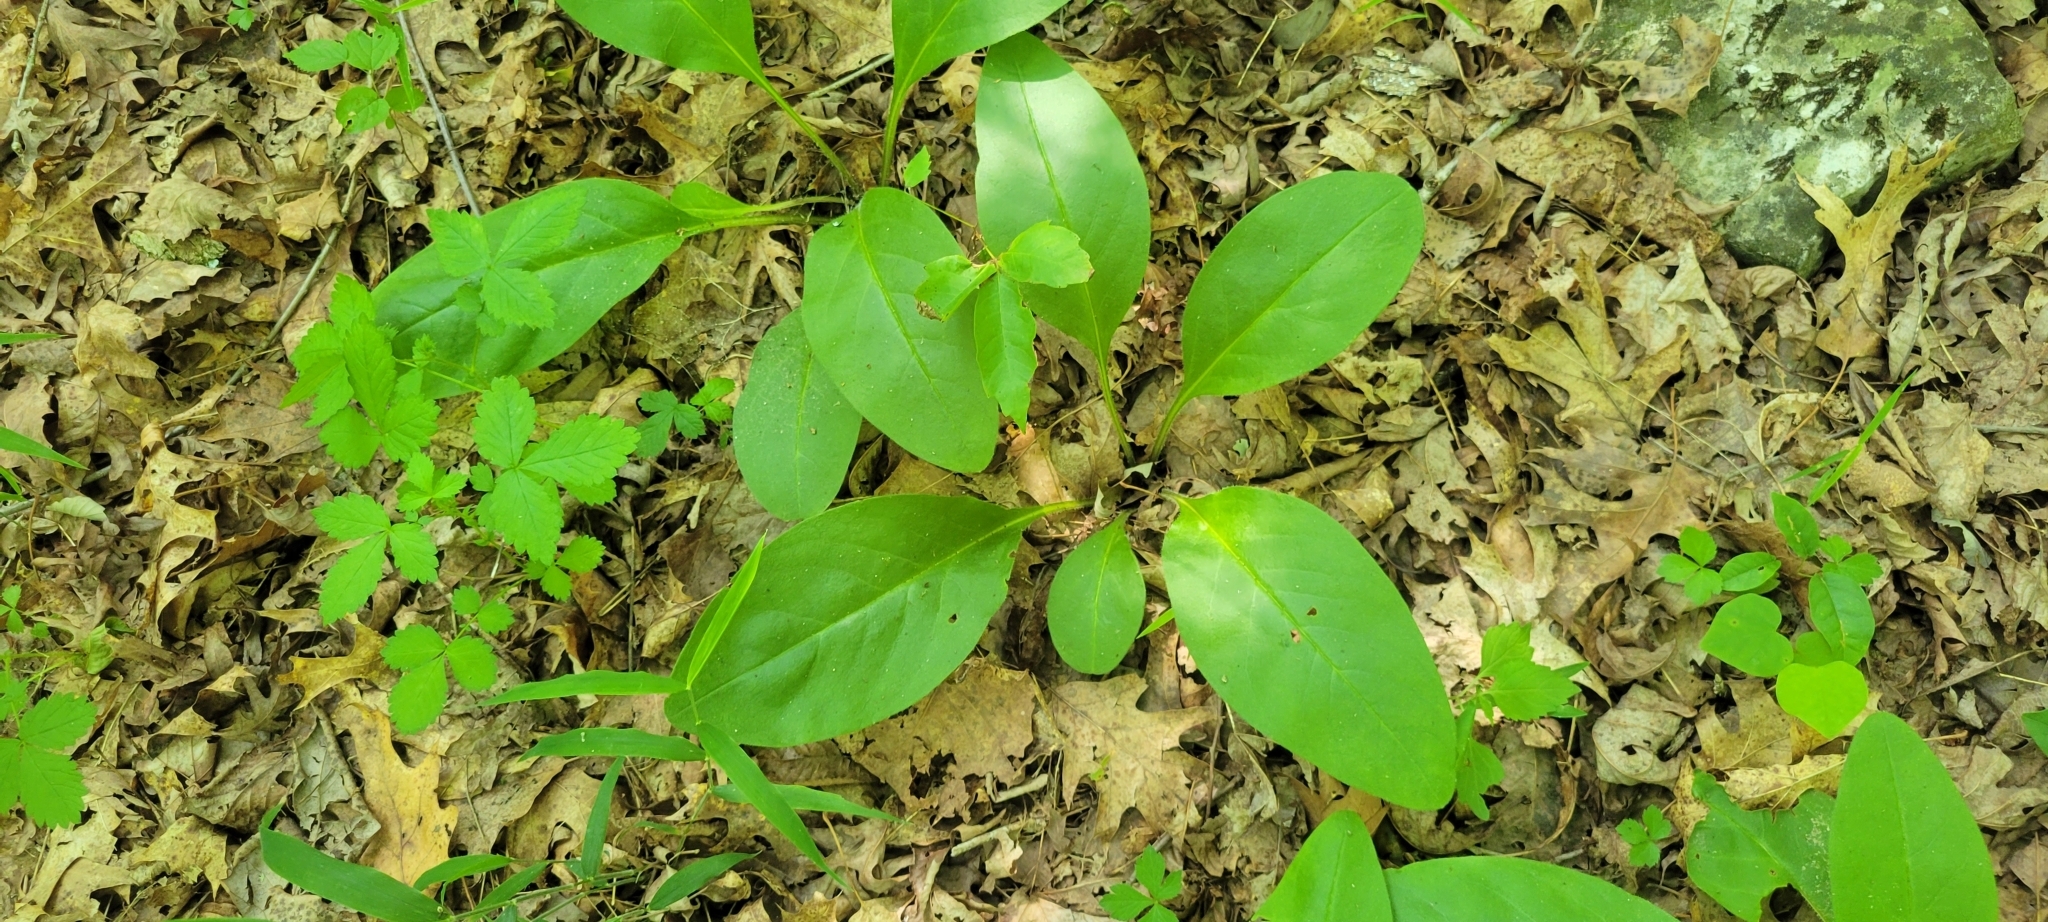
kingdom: Plantae
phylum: Tracheophyta
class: Magnoliopsida
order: Boraginales
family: Boraginaceae
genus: Andersonglossum
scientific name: Andersonglossum virginianum
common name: Wild comfrey
